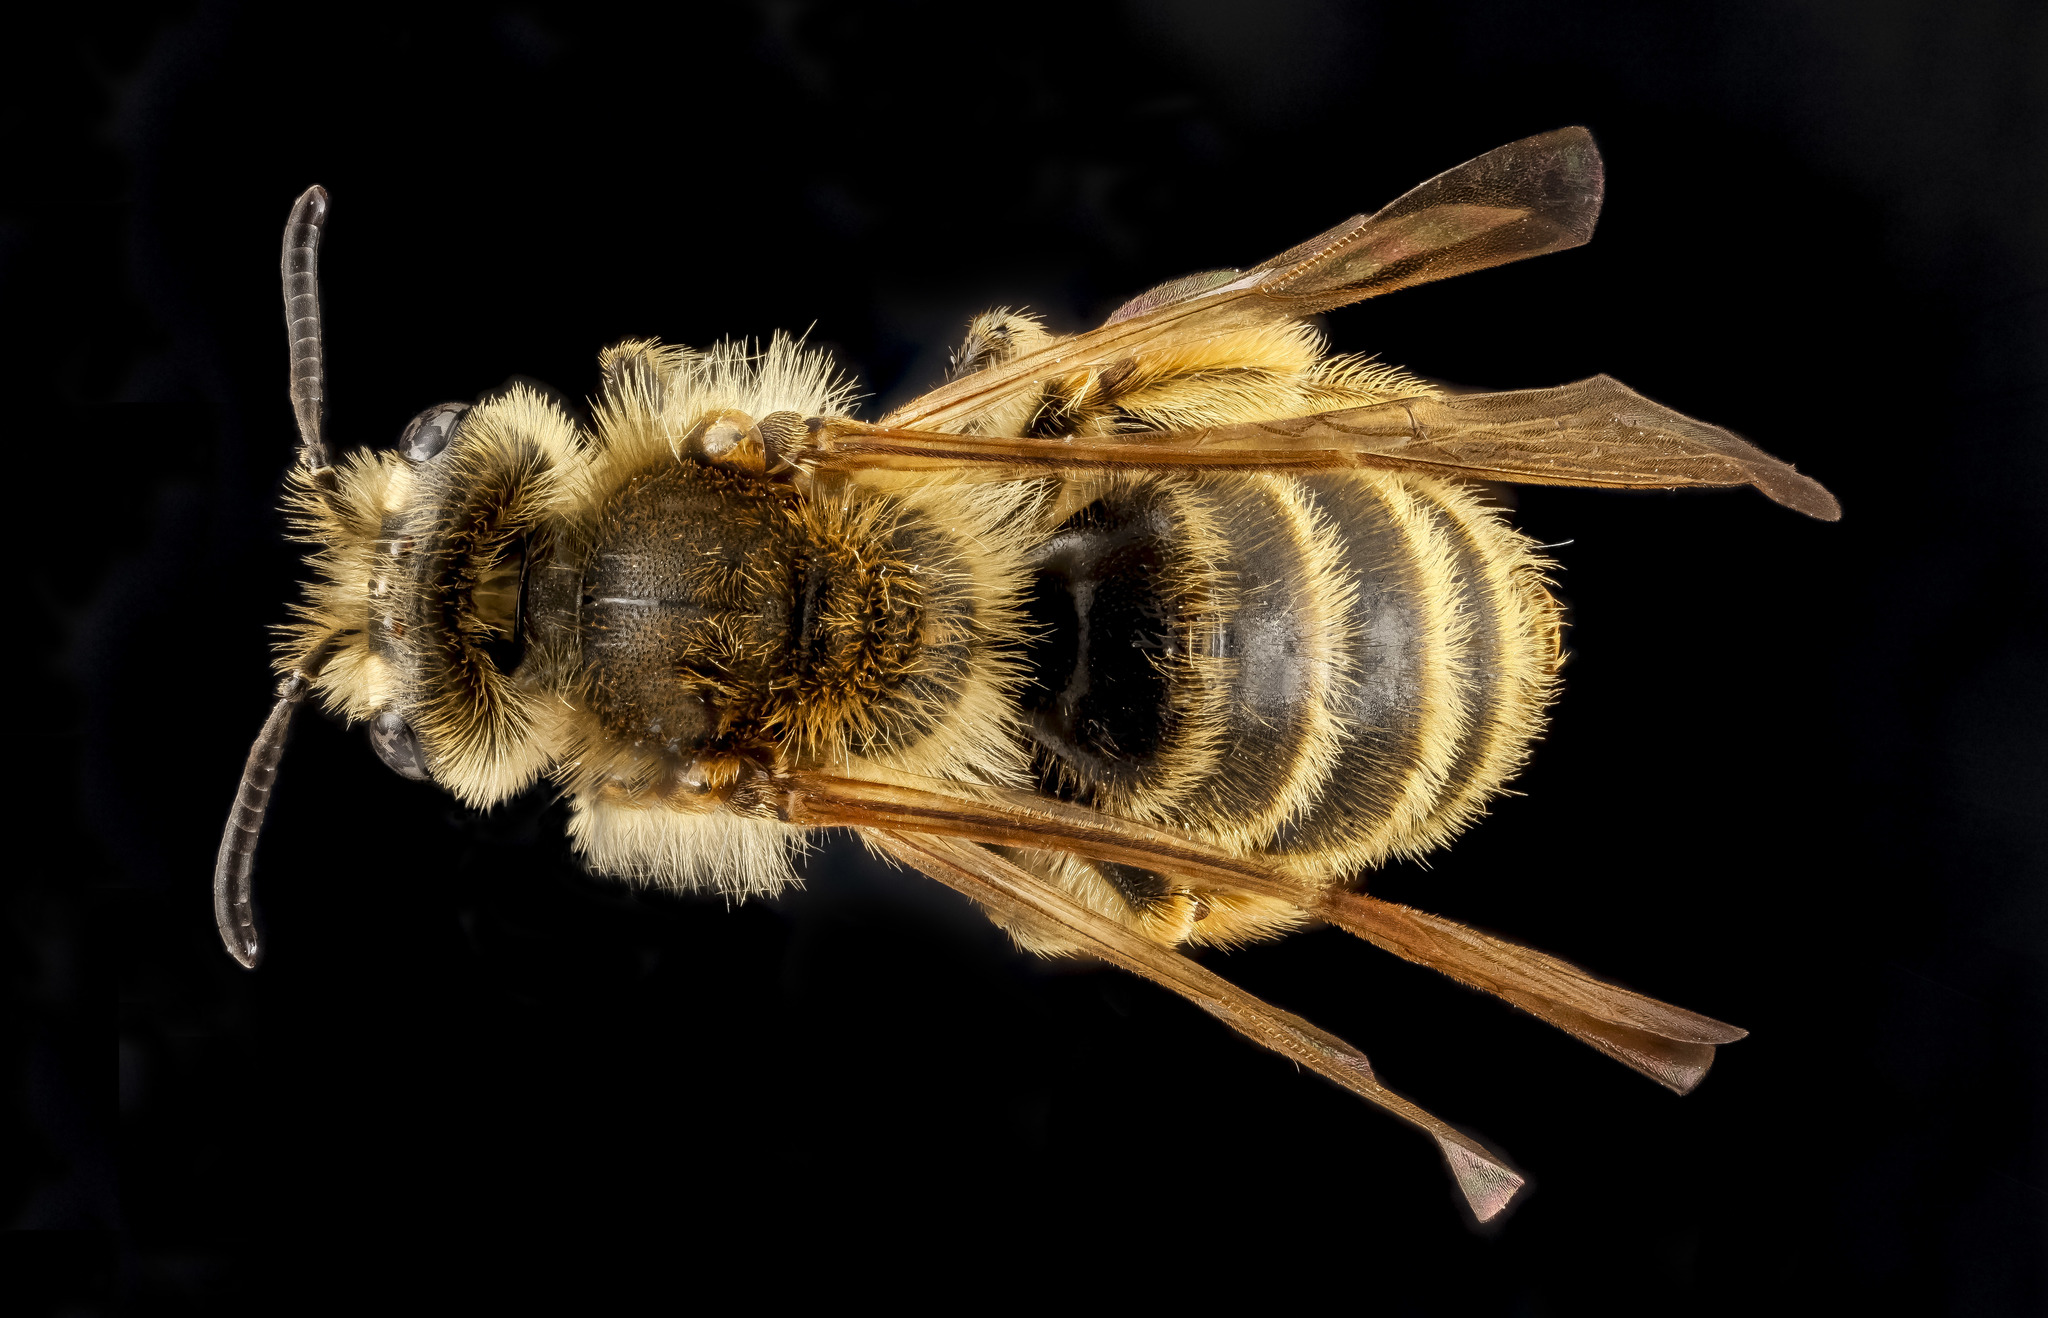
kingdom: Animalia
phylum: Arthropoda
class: Insecta
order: Hymenoptera
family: Andrenidae
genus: Andrena
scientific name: Andrena astragali
